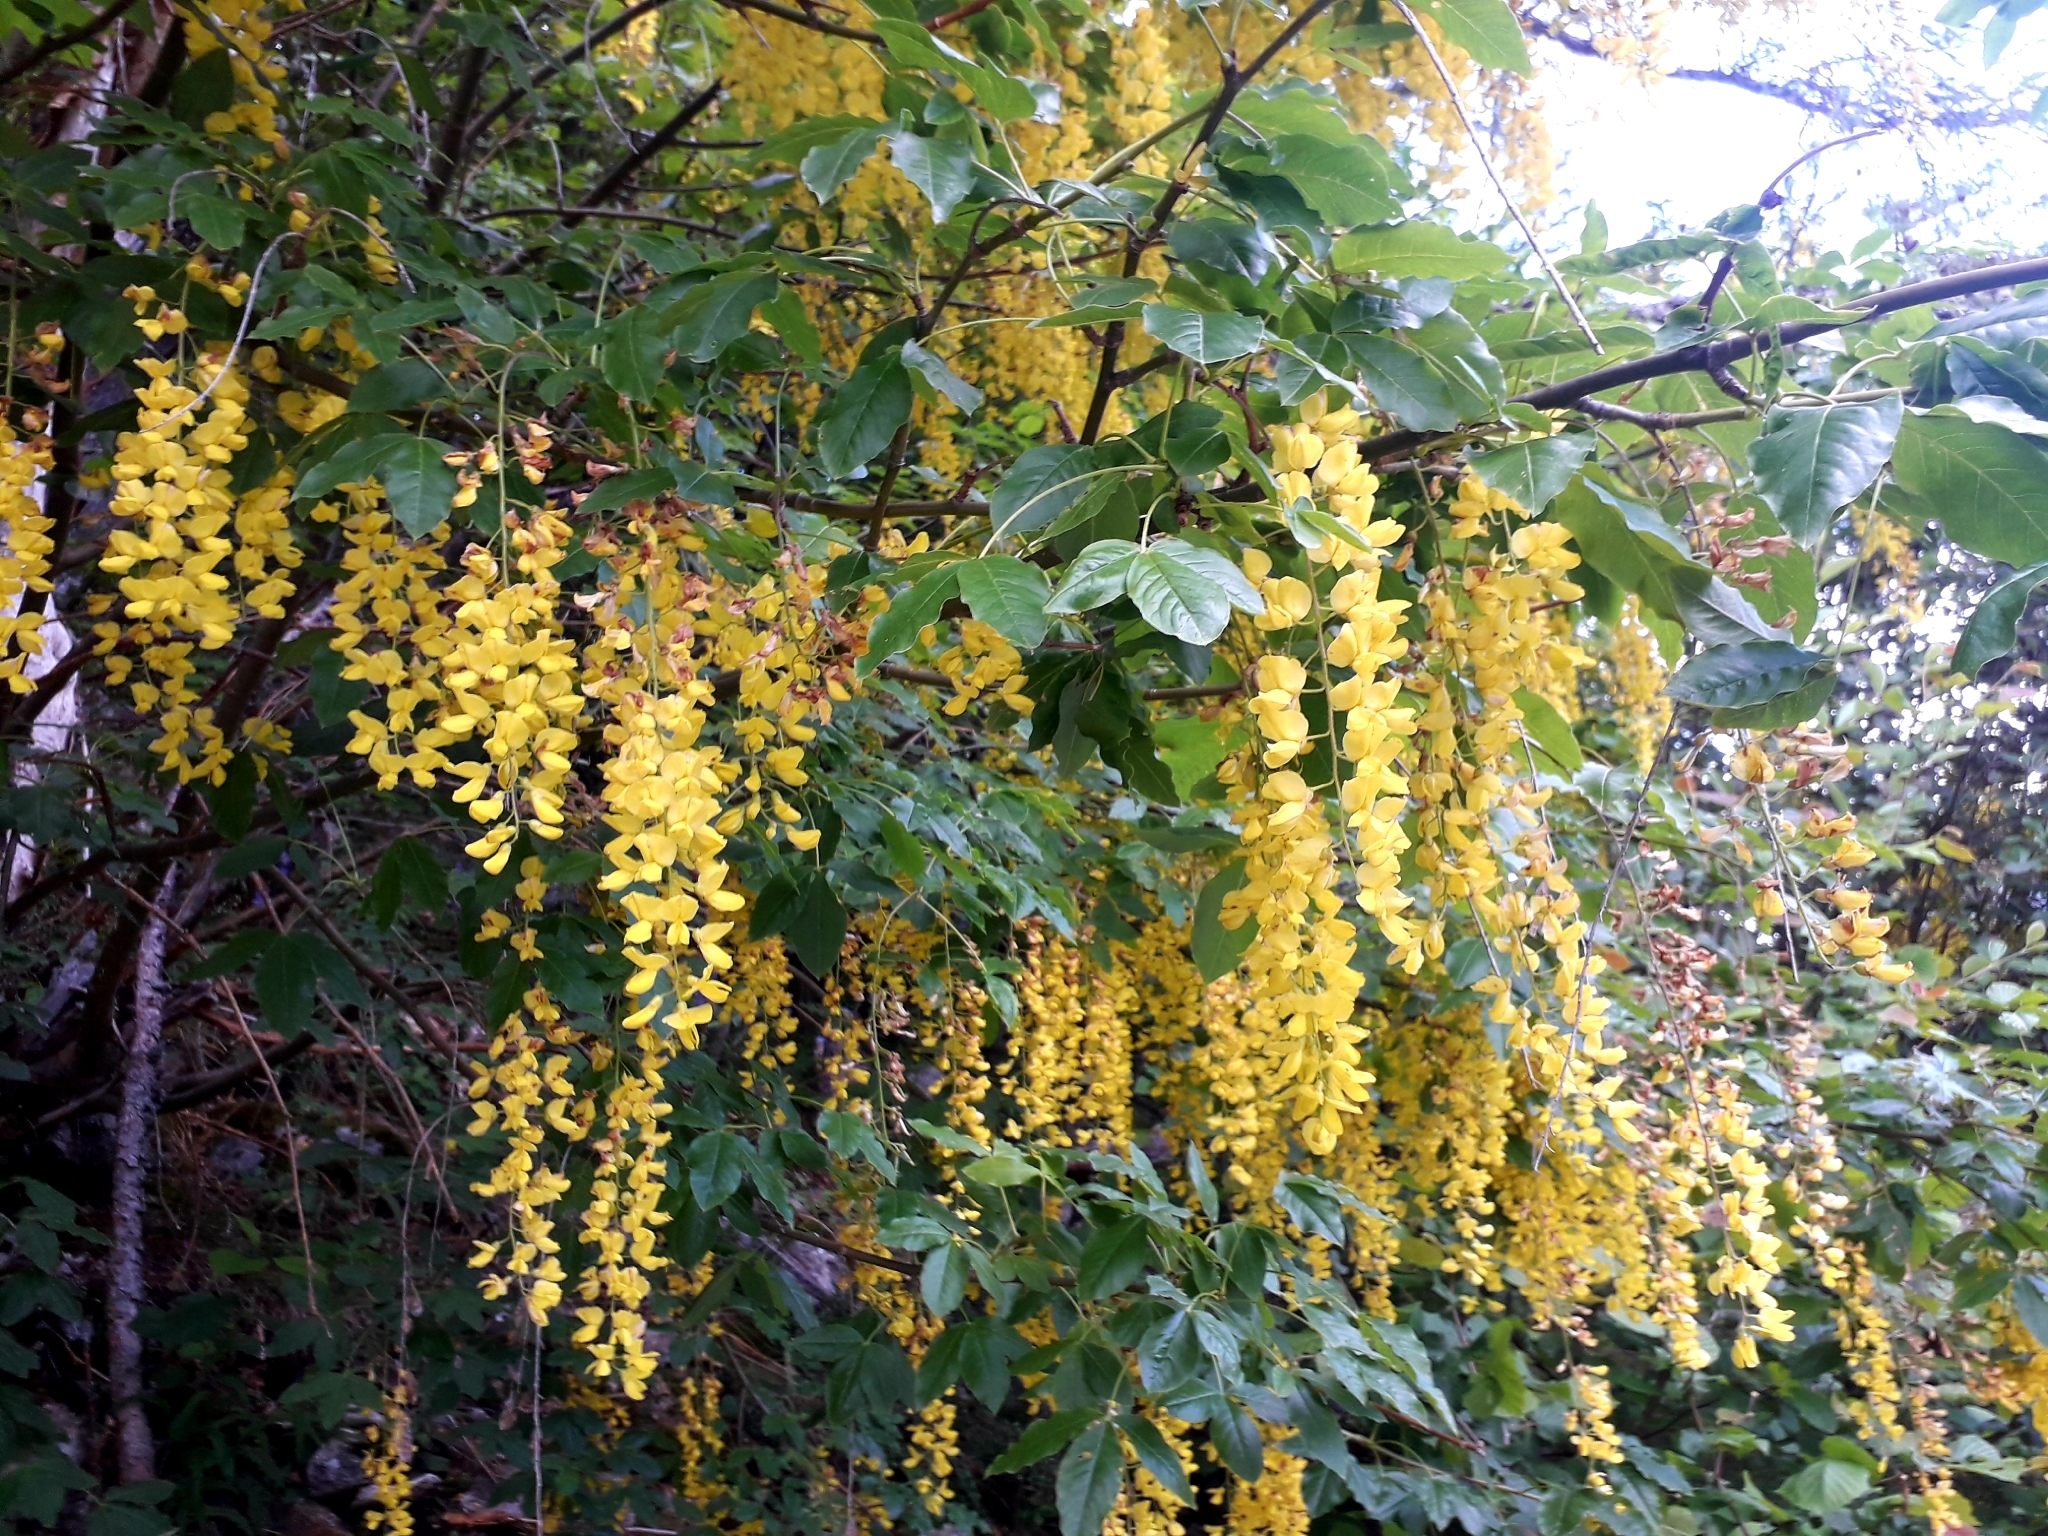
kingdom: Plantae
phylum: Tracheophyta
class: Magnoliopsida
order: Fabales
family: Fabaceae
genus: Laburnum
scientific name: Laburnum alpinum
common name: Scottish laburnum
